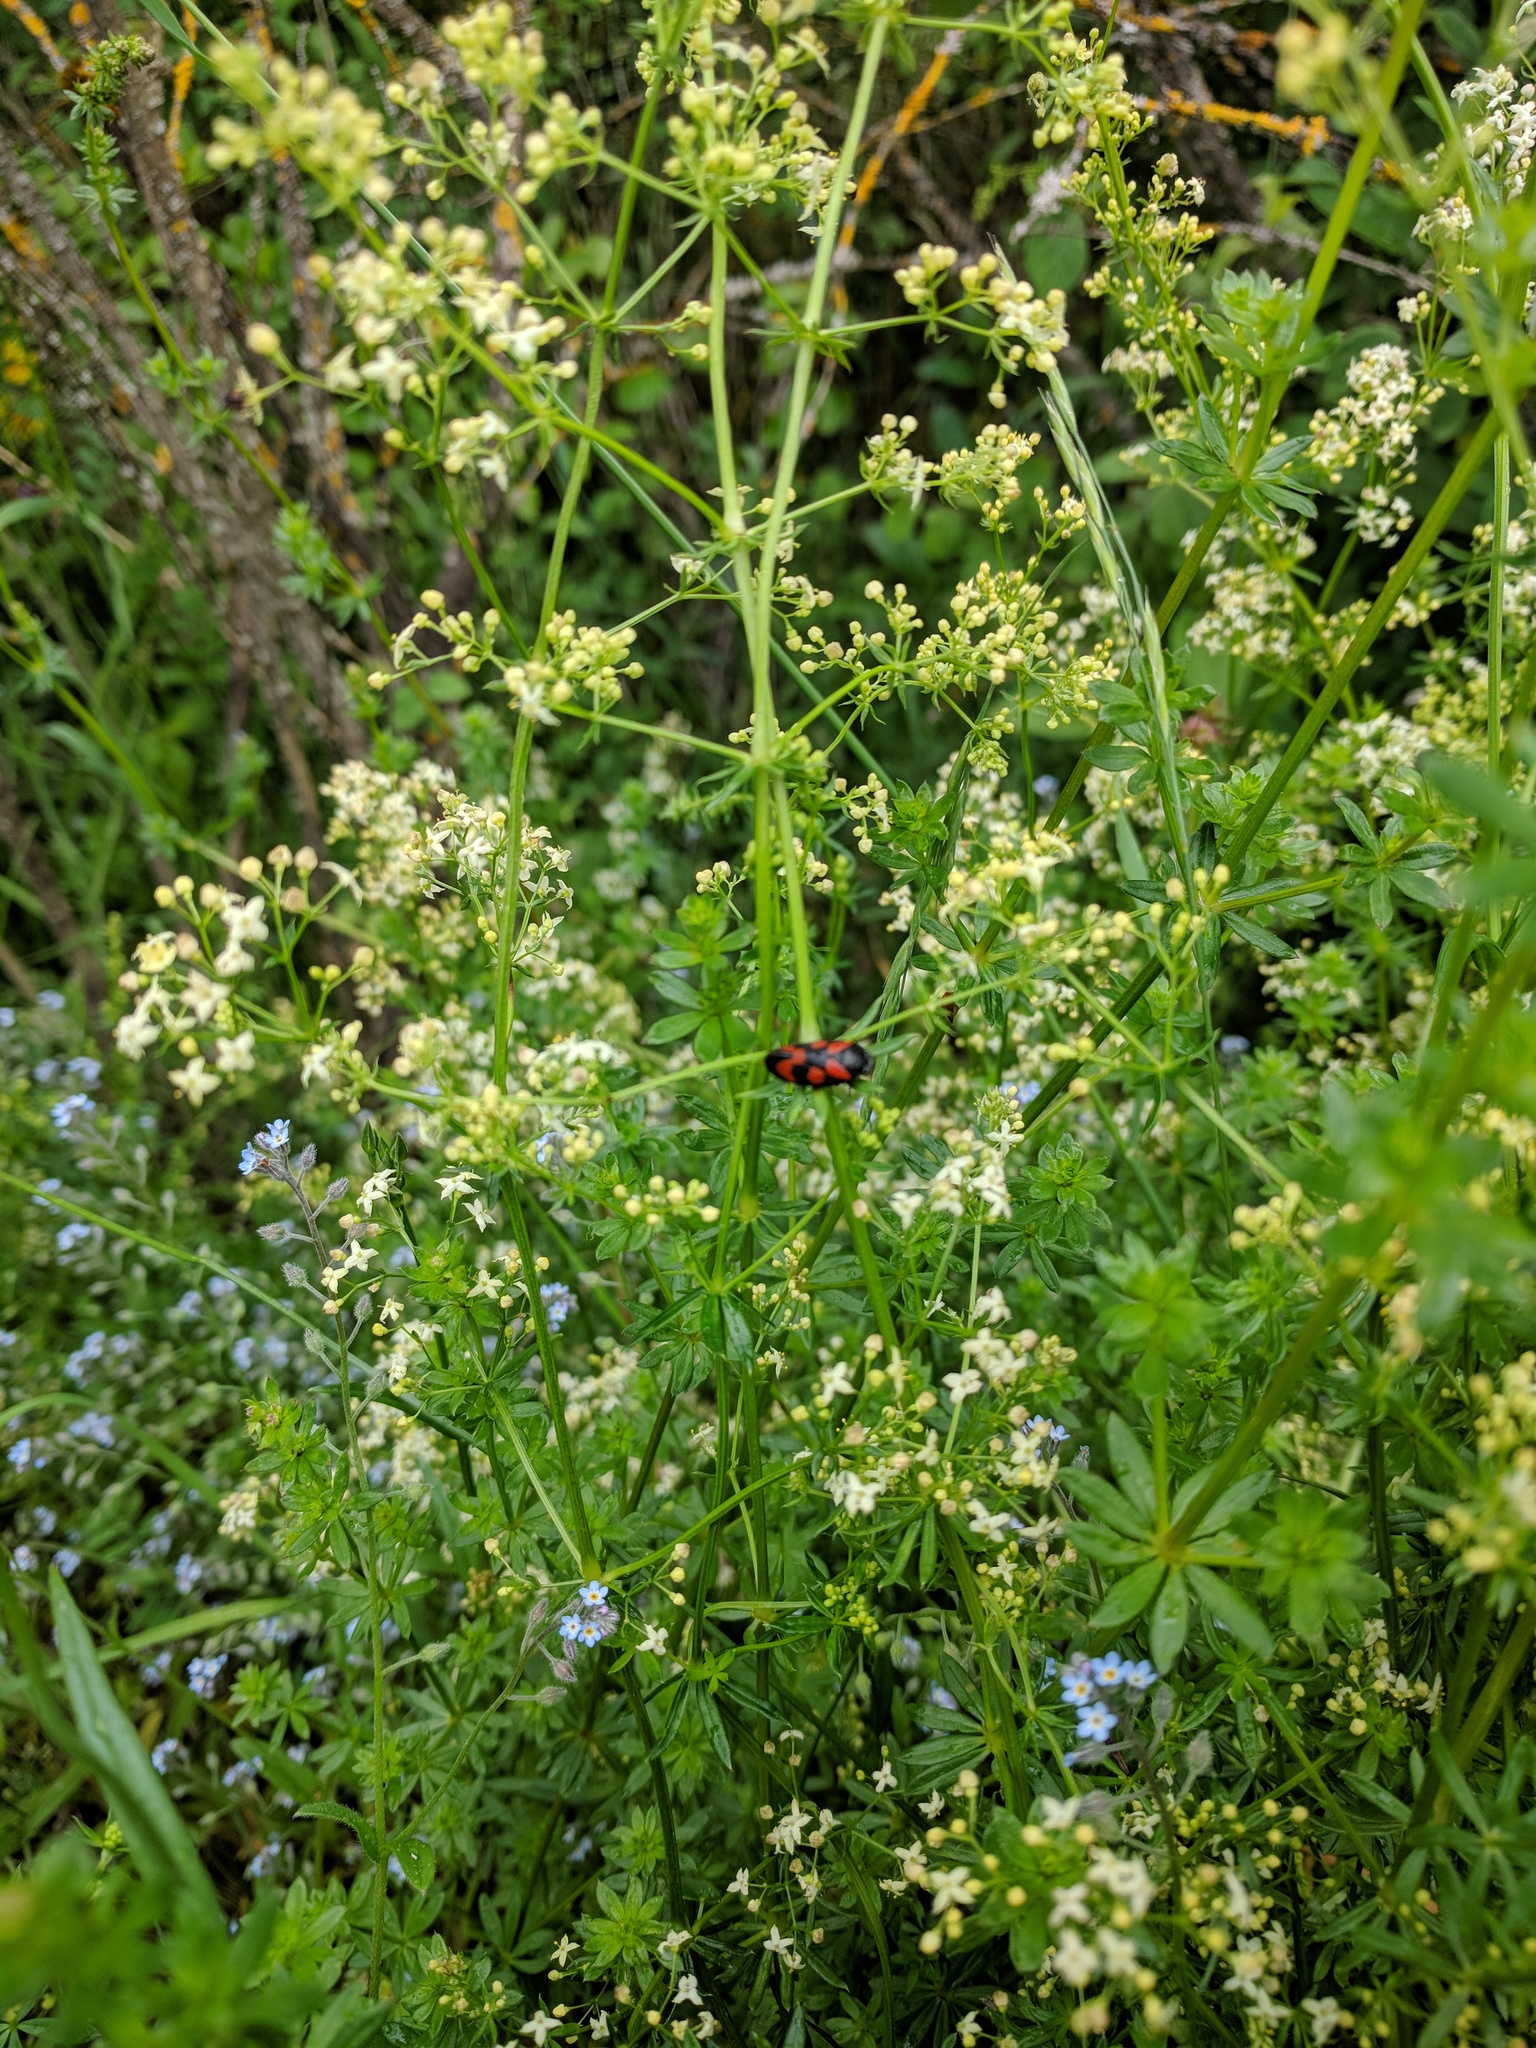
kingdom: Animalia
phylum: Arthropoda
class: Insecta
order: Hemiptera
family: Cercopidae
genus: Cercopis
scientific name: Cercopis vulnerata
